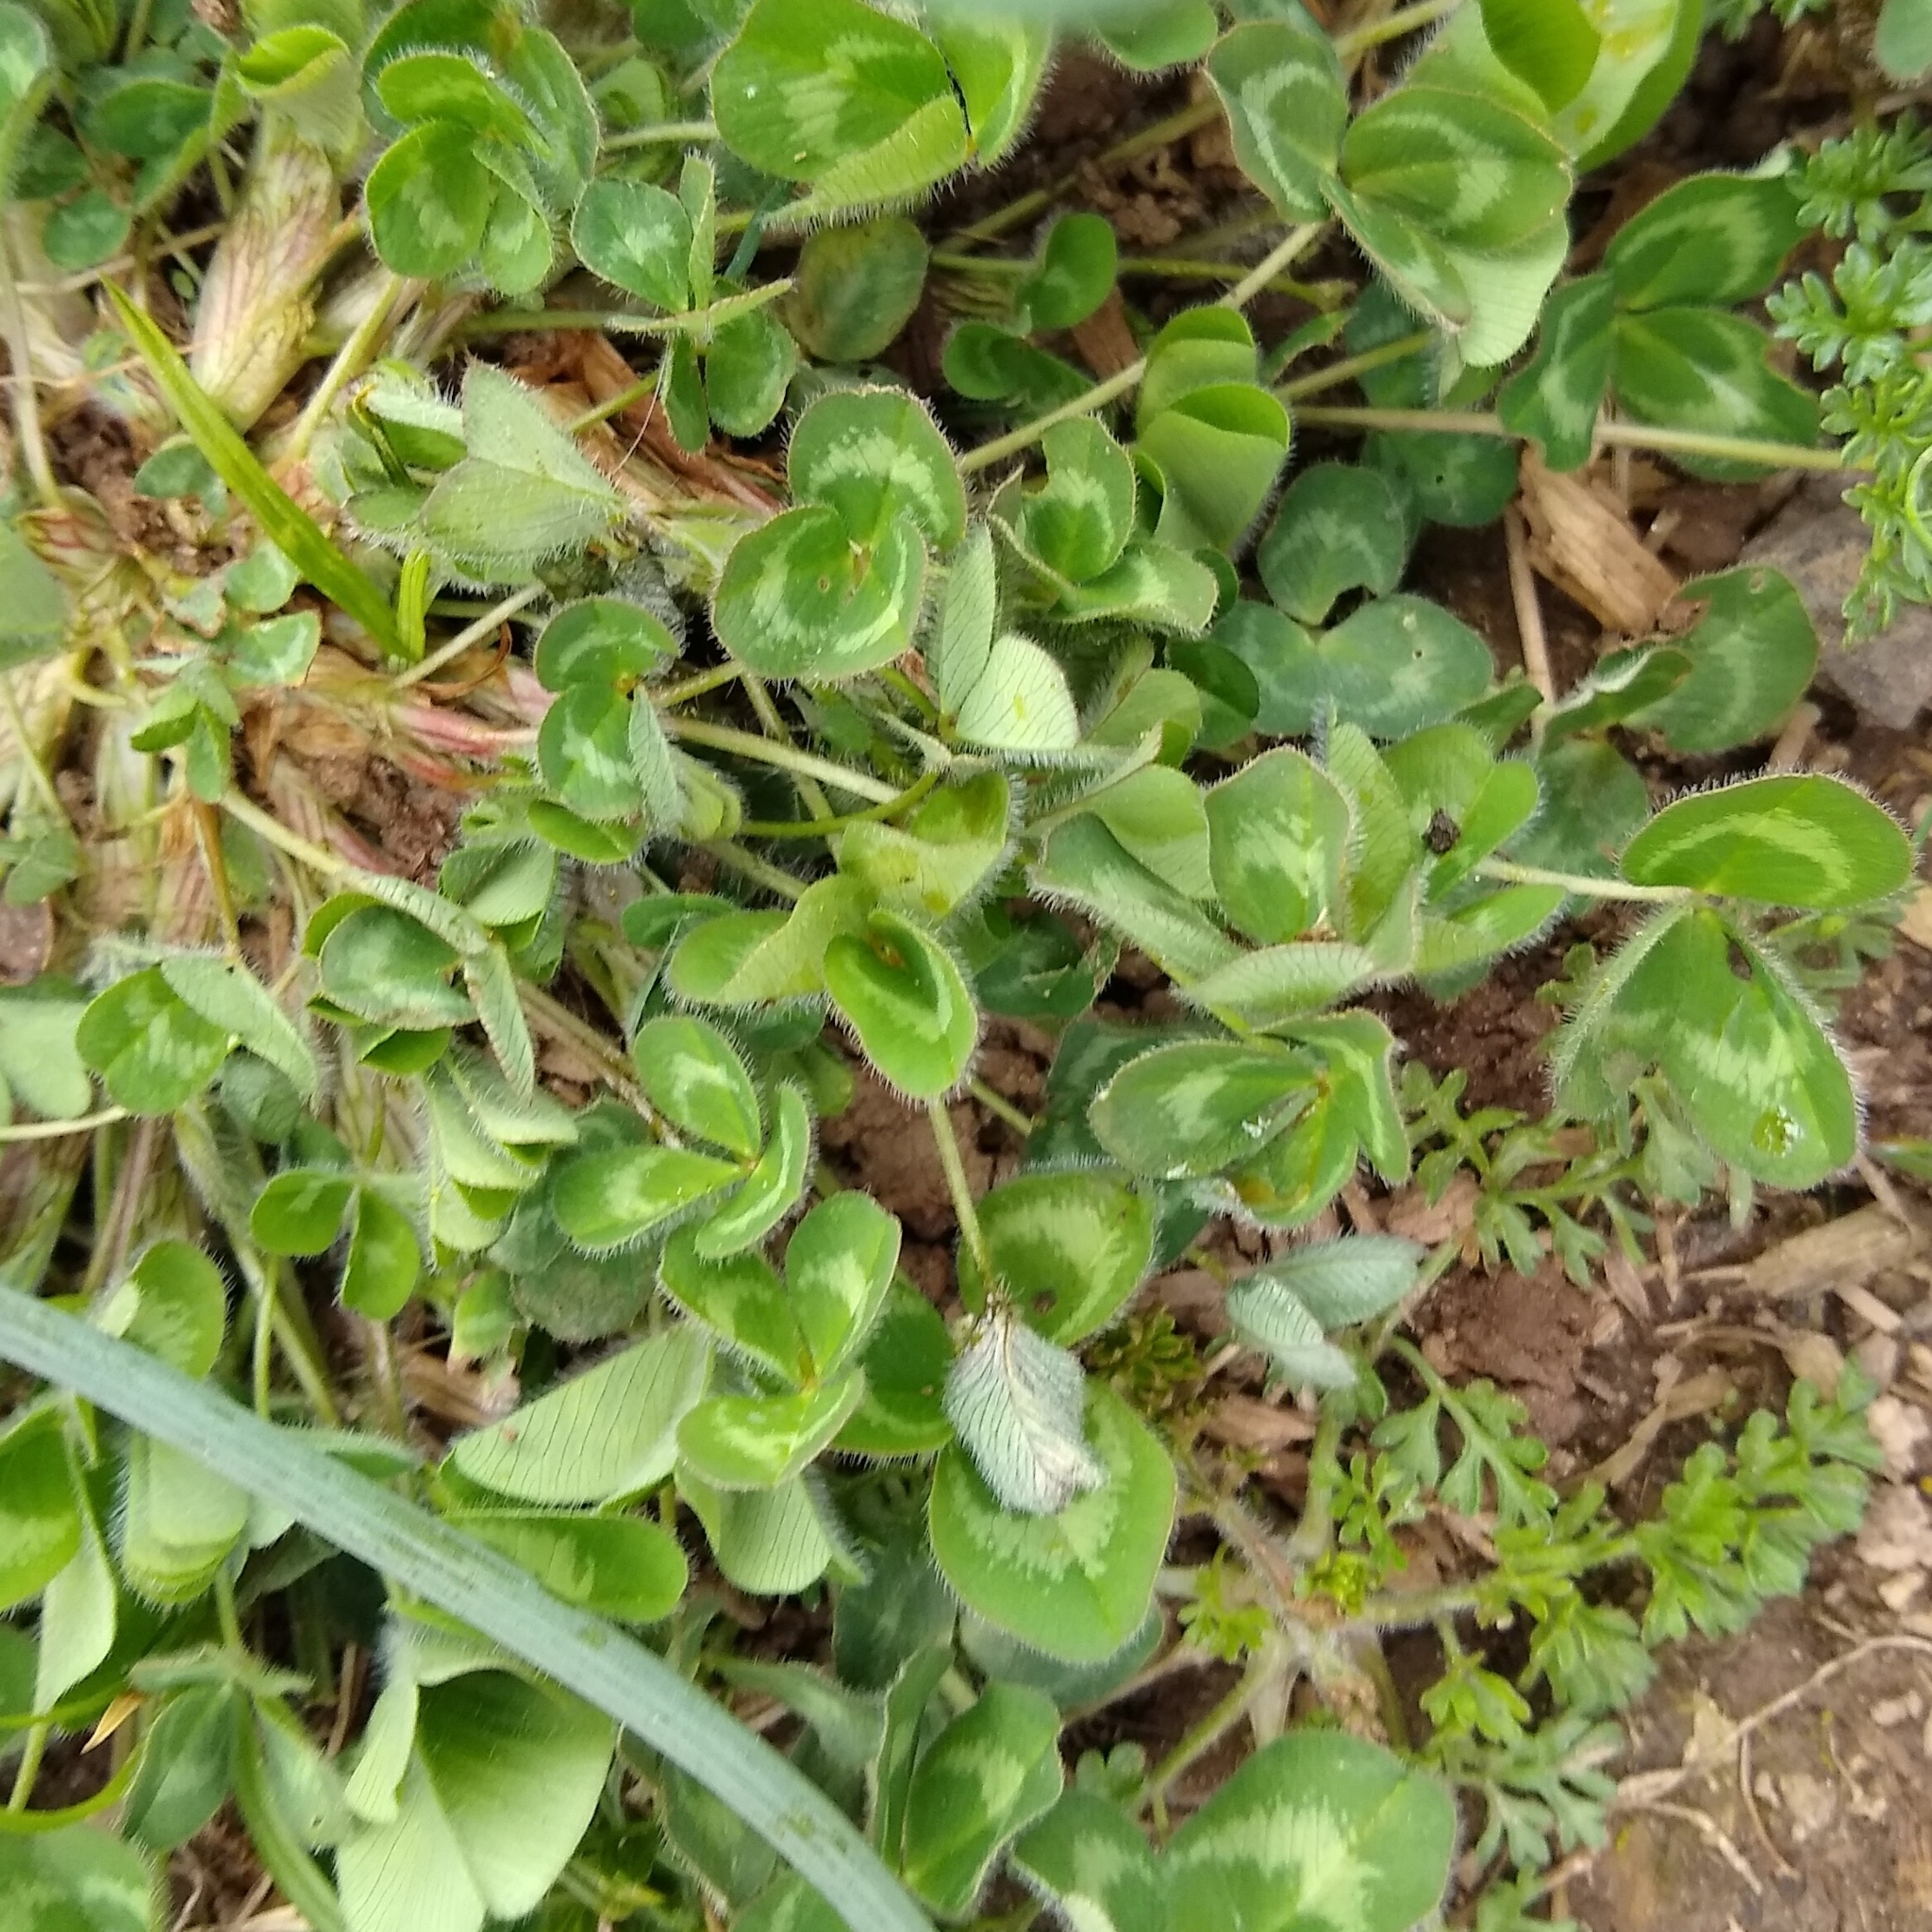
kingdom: Plantae
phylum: Tracheophyta
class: Magnoliopsida
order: Fabales
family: Fabaceae
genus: Trifolium
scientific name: Trifolium pratense
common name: Red clover
